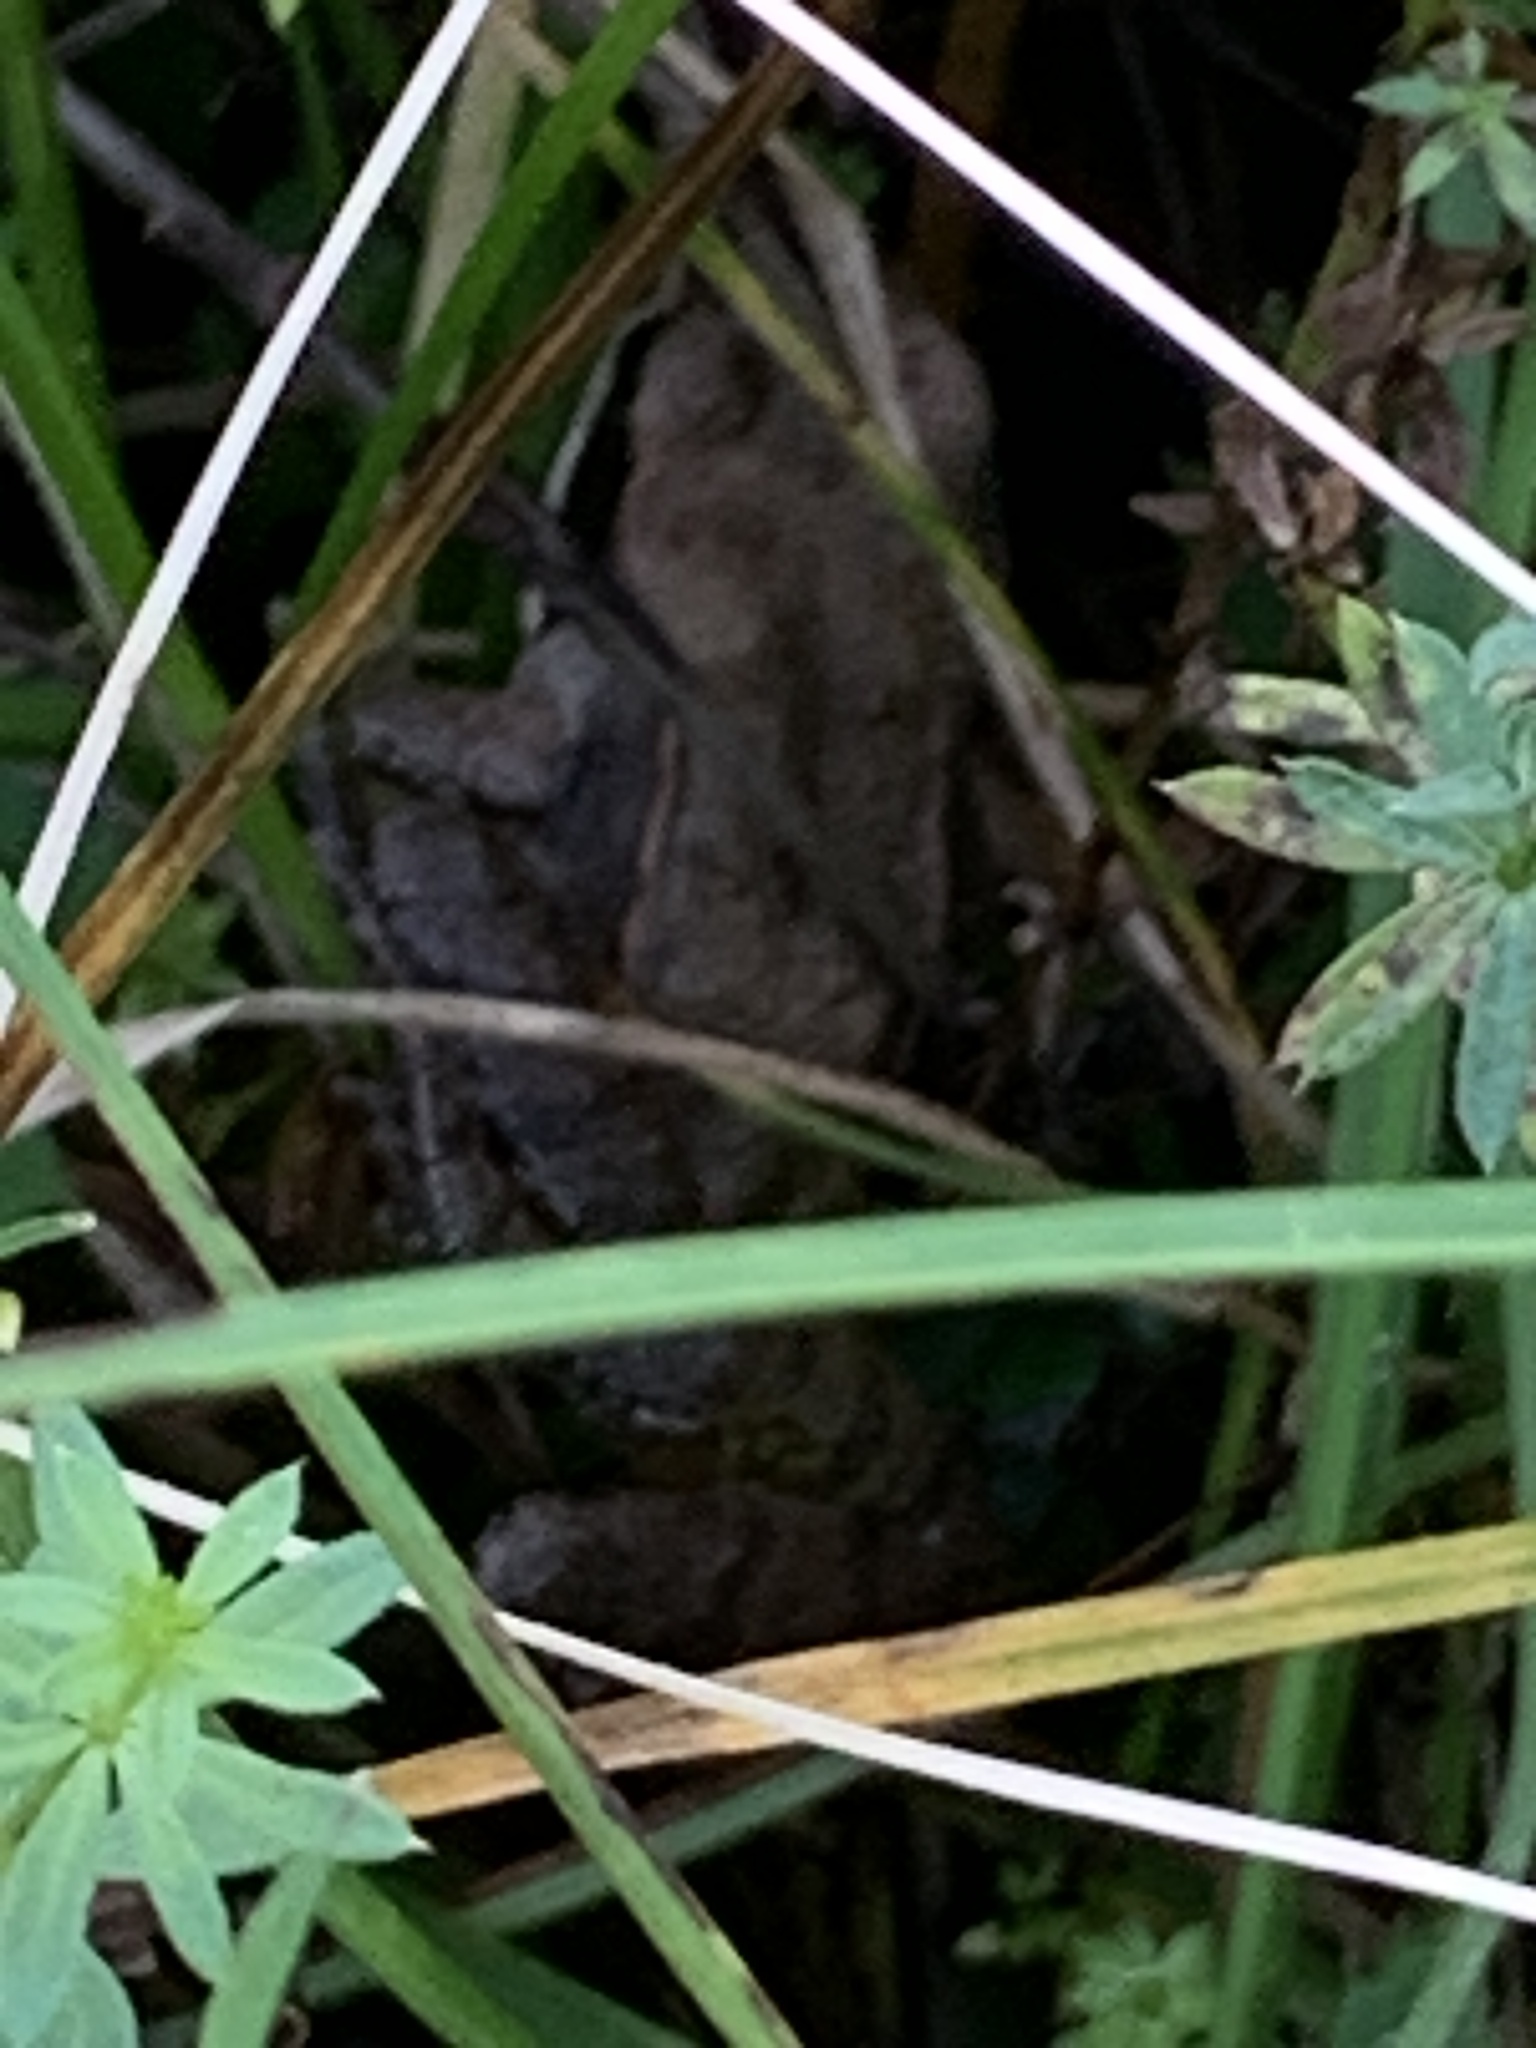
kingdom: Animalia
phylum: Chordata
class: Amphibia
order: Anura
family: Ranidae
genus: Lithobates
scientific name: Lithobates sylvaticus
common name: Wood frog
